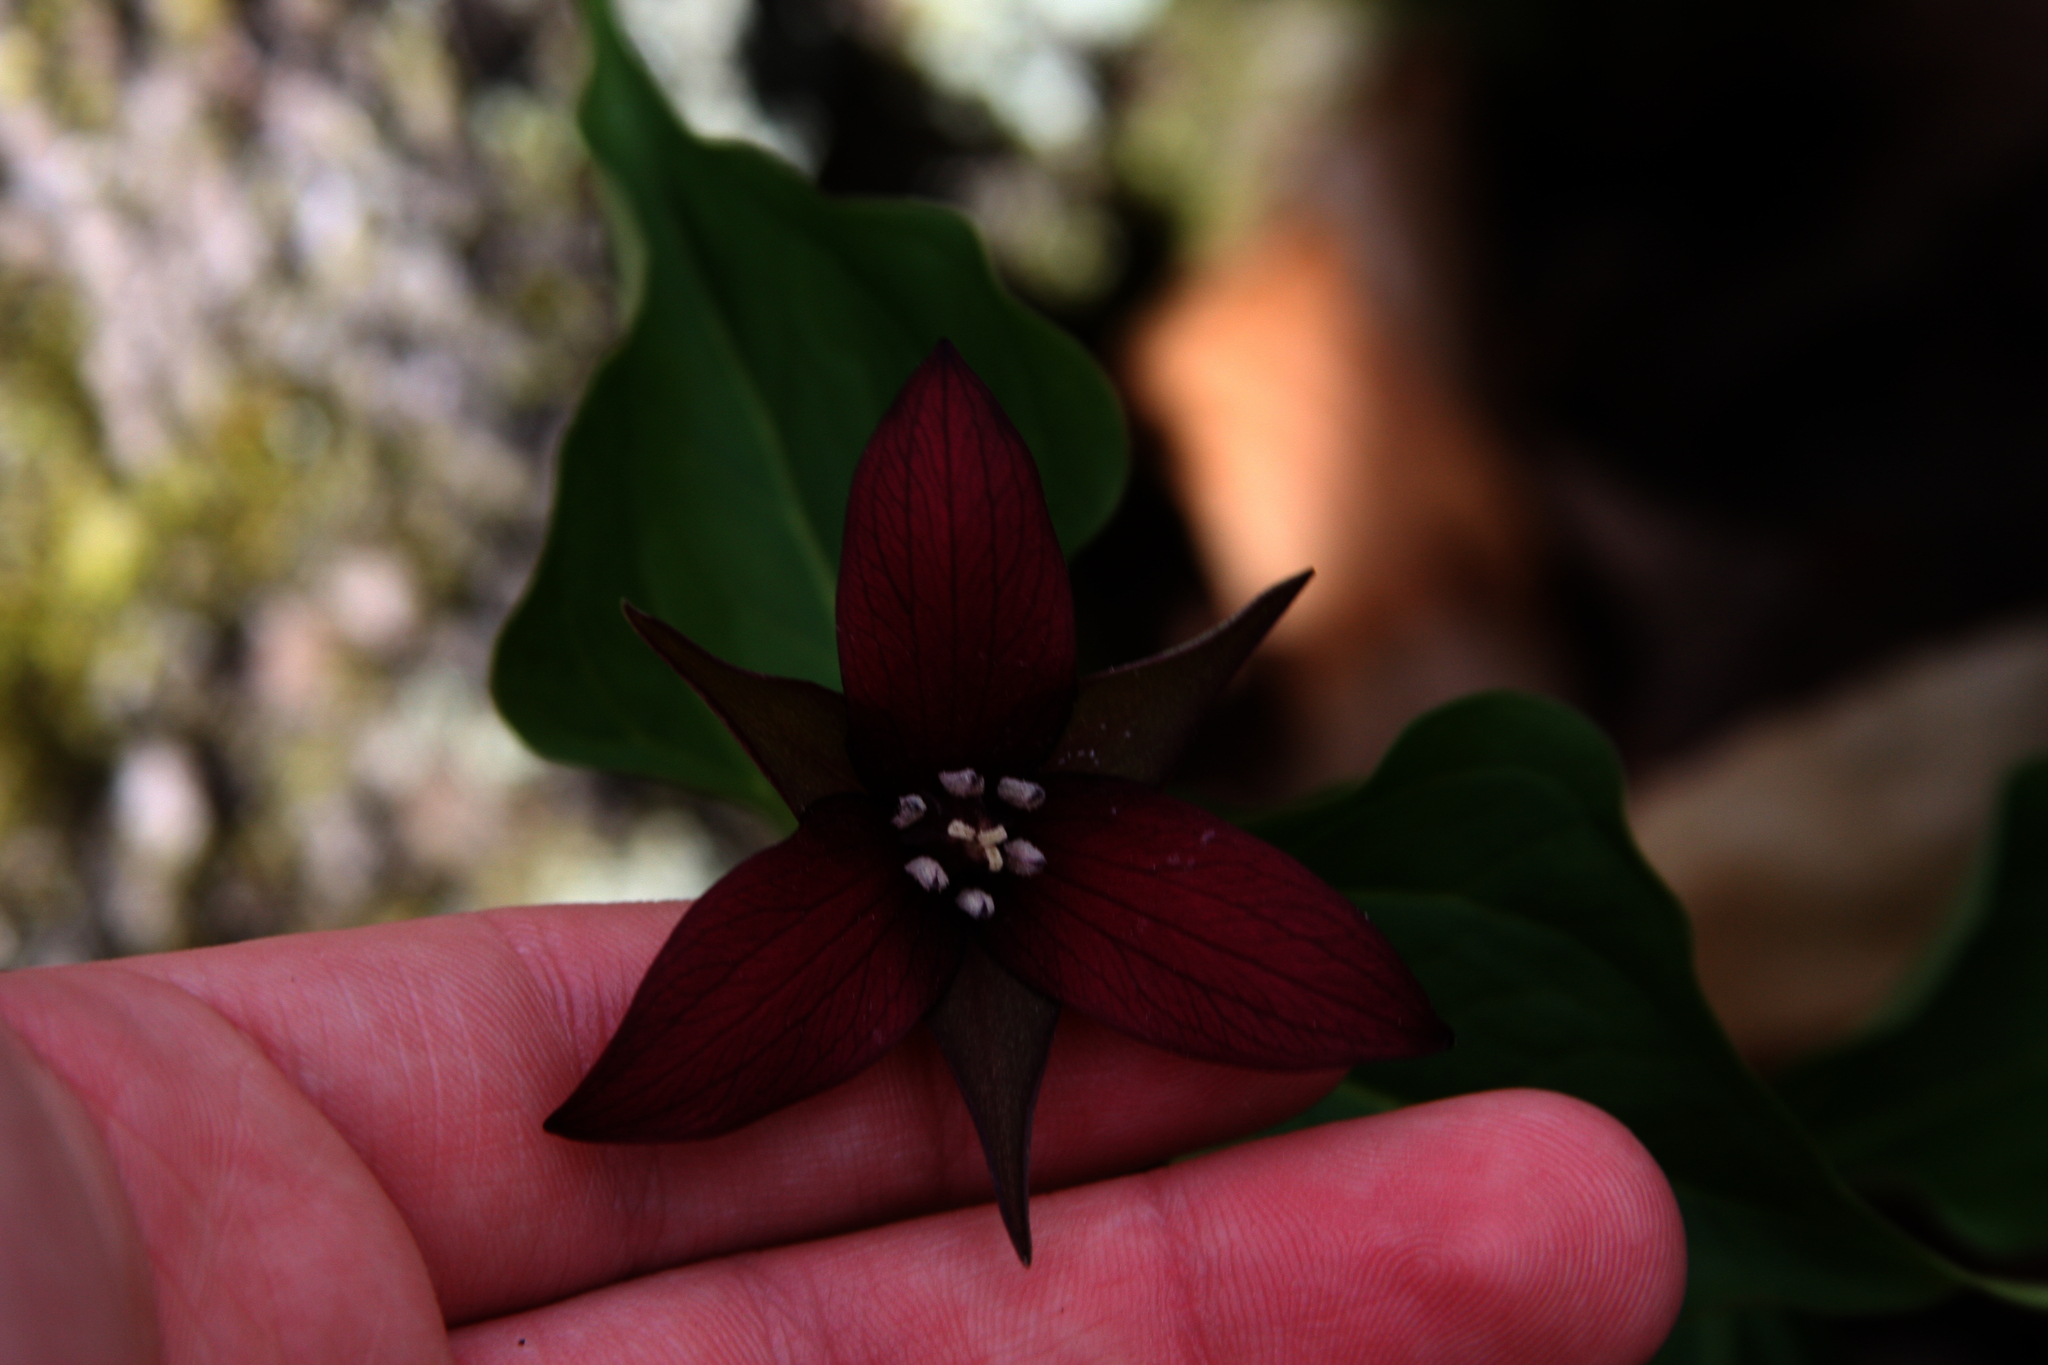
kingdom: Plantae
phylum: Tracheophyta
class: Liliopsida
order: Liliales
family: Melanthiaceae
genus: Trillium
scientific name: Trillium erectum
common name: Purple trillium
